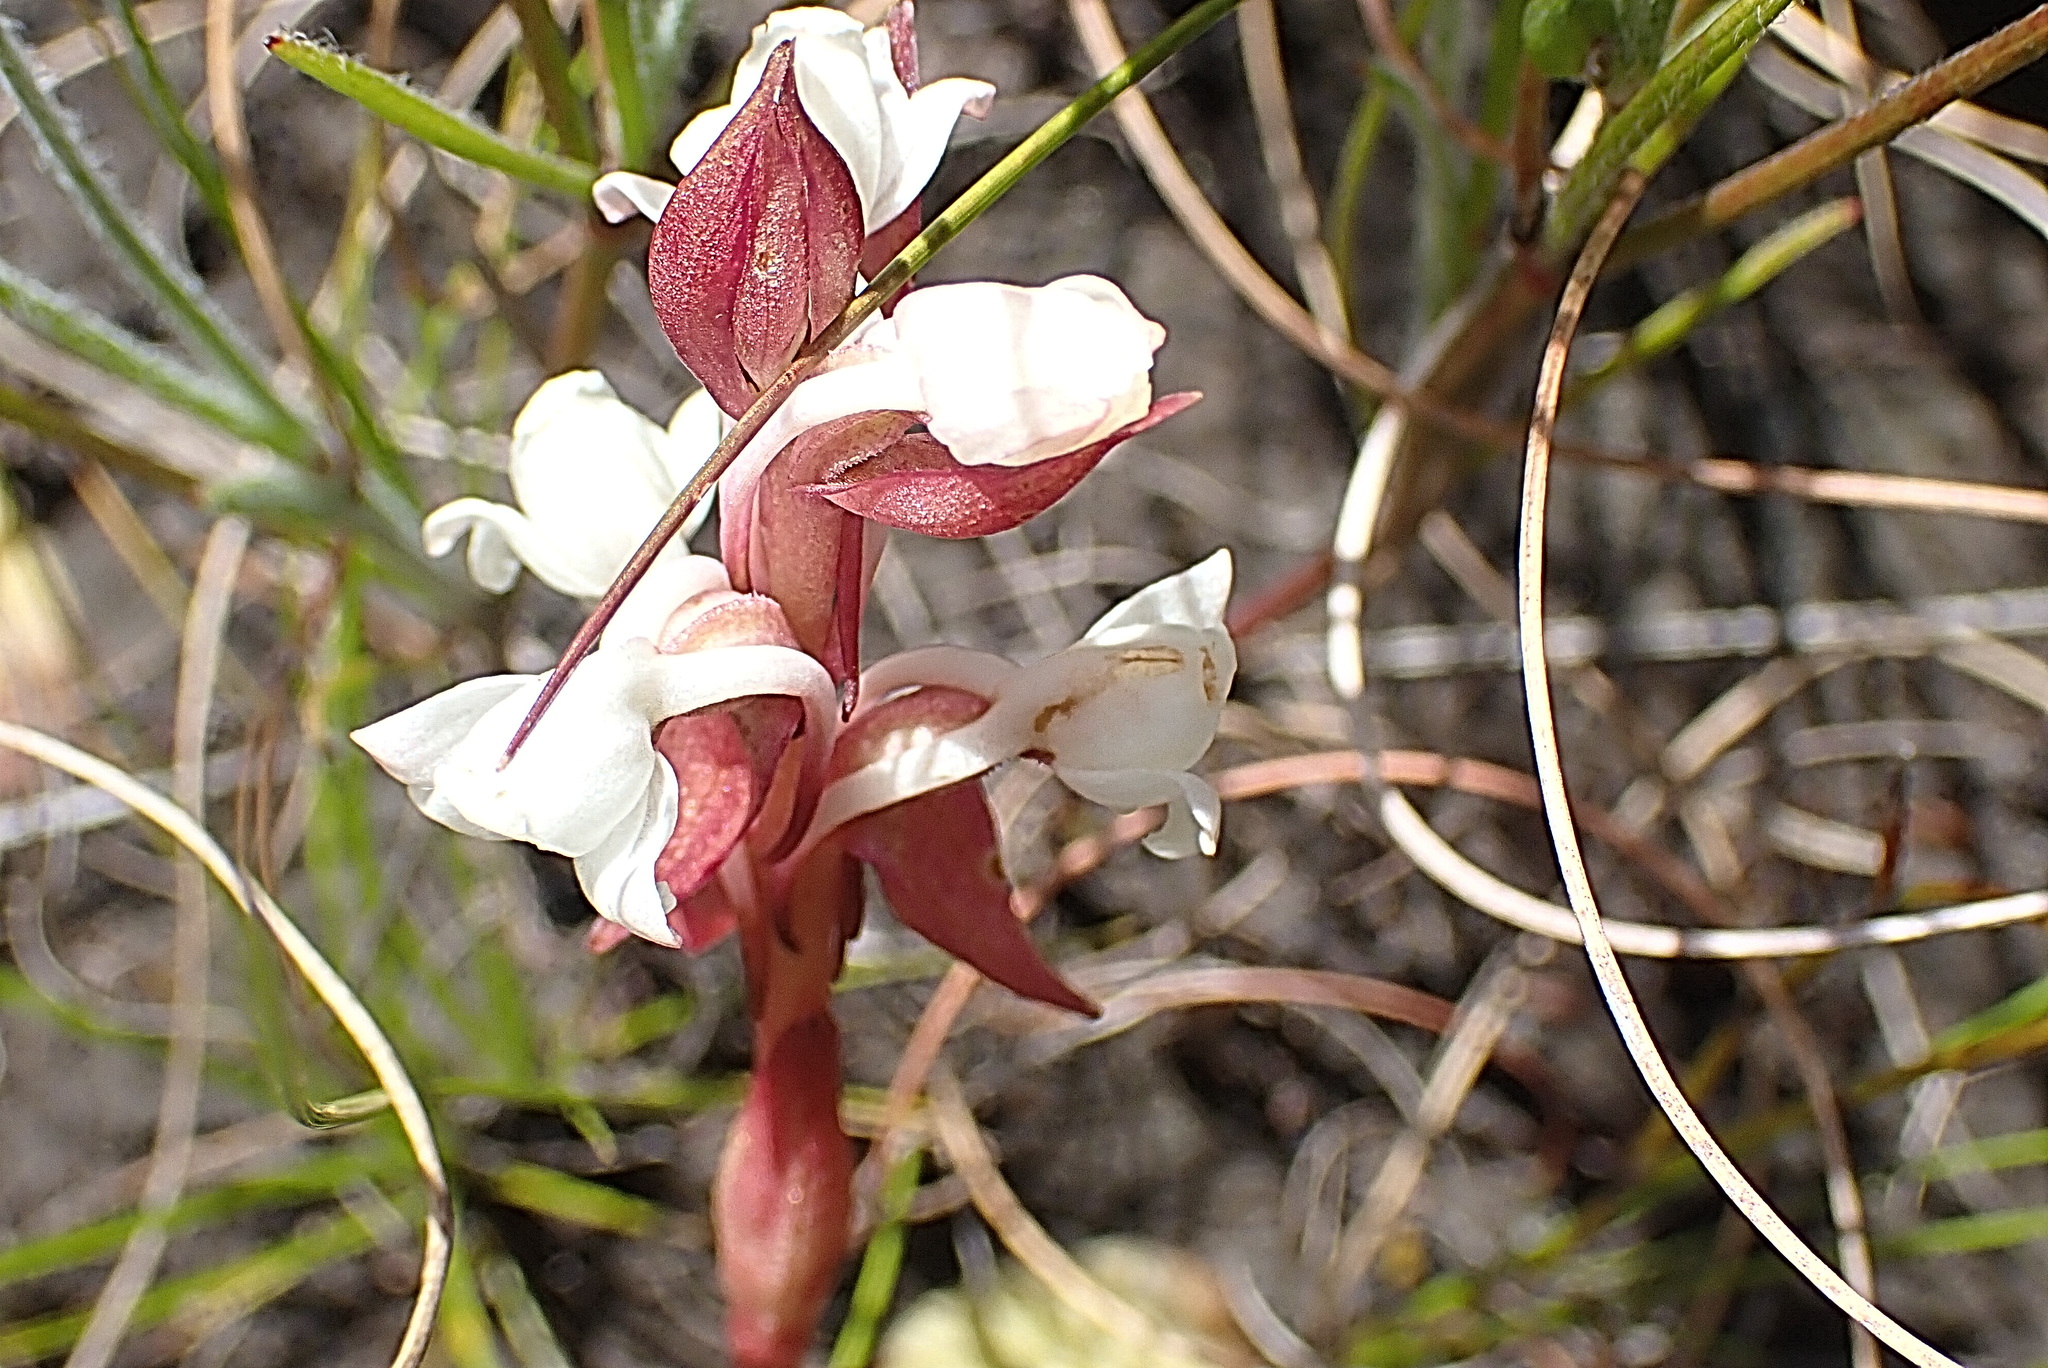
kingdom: Plantae
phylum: Tracheophyta
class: Liliopsida
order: Asparagales
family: Orchidaceae
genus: Satyrium
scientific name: Satyrium acuminatum
